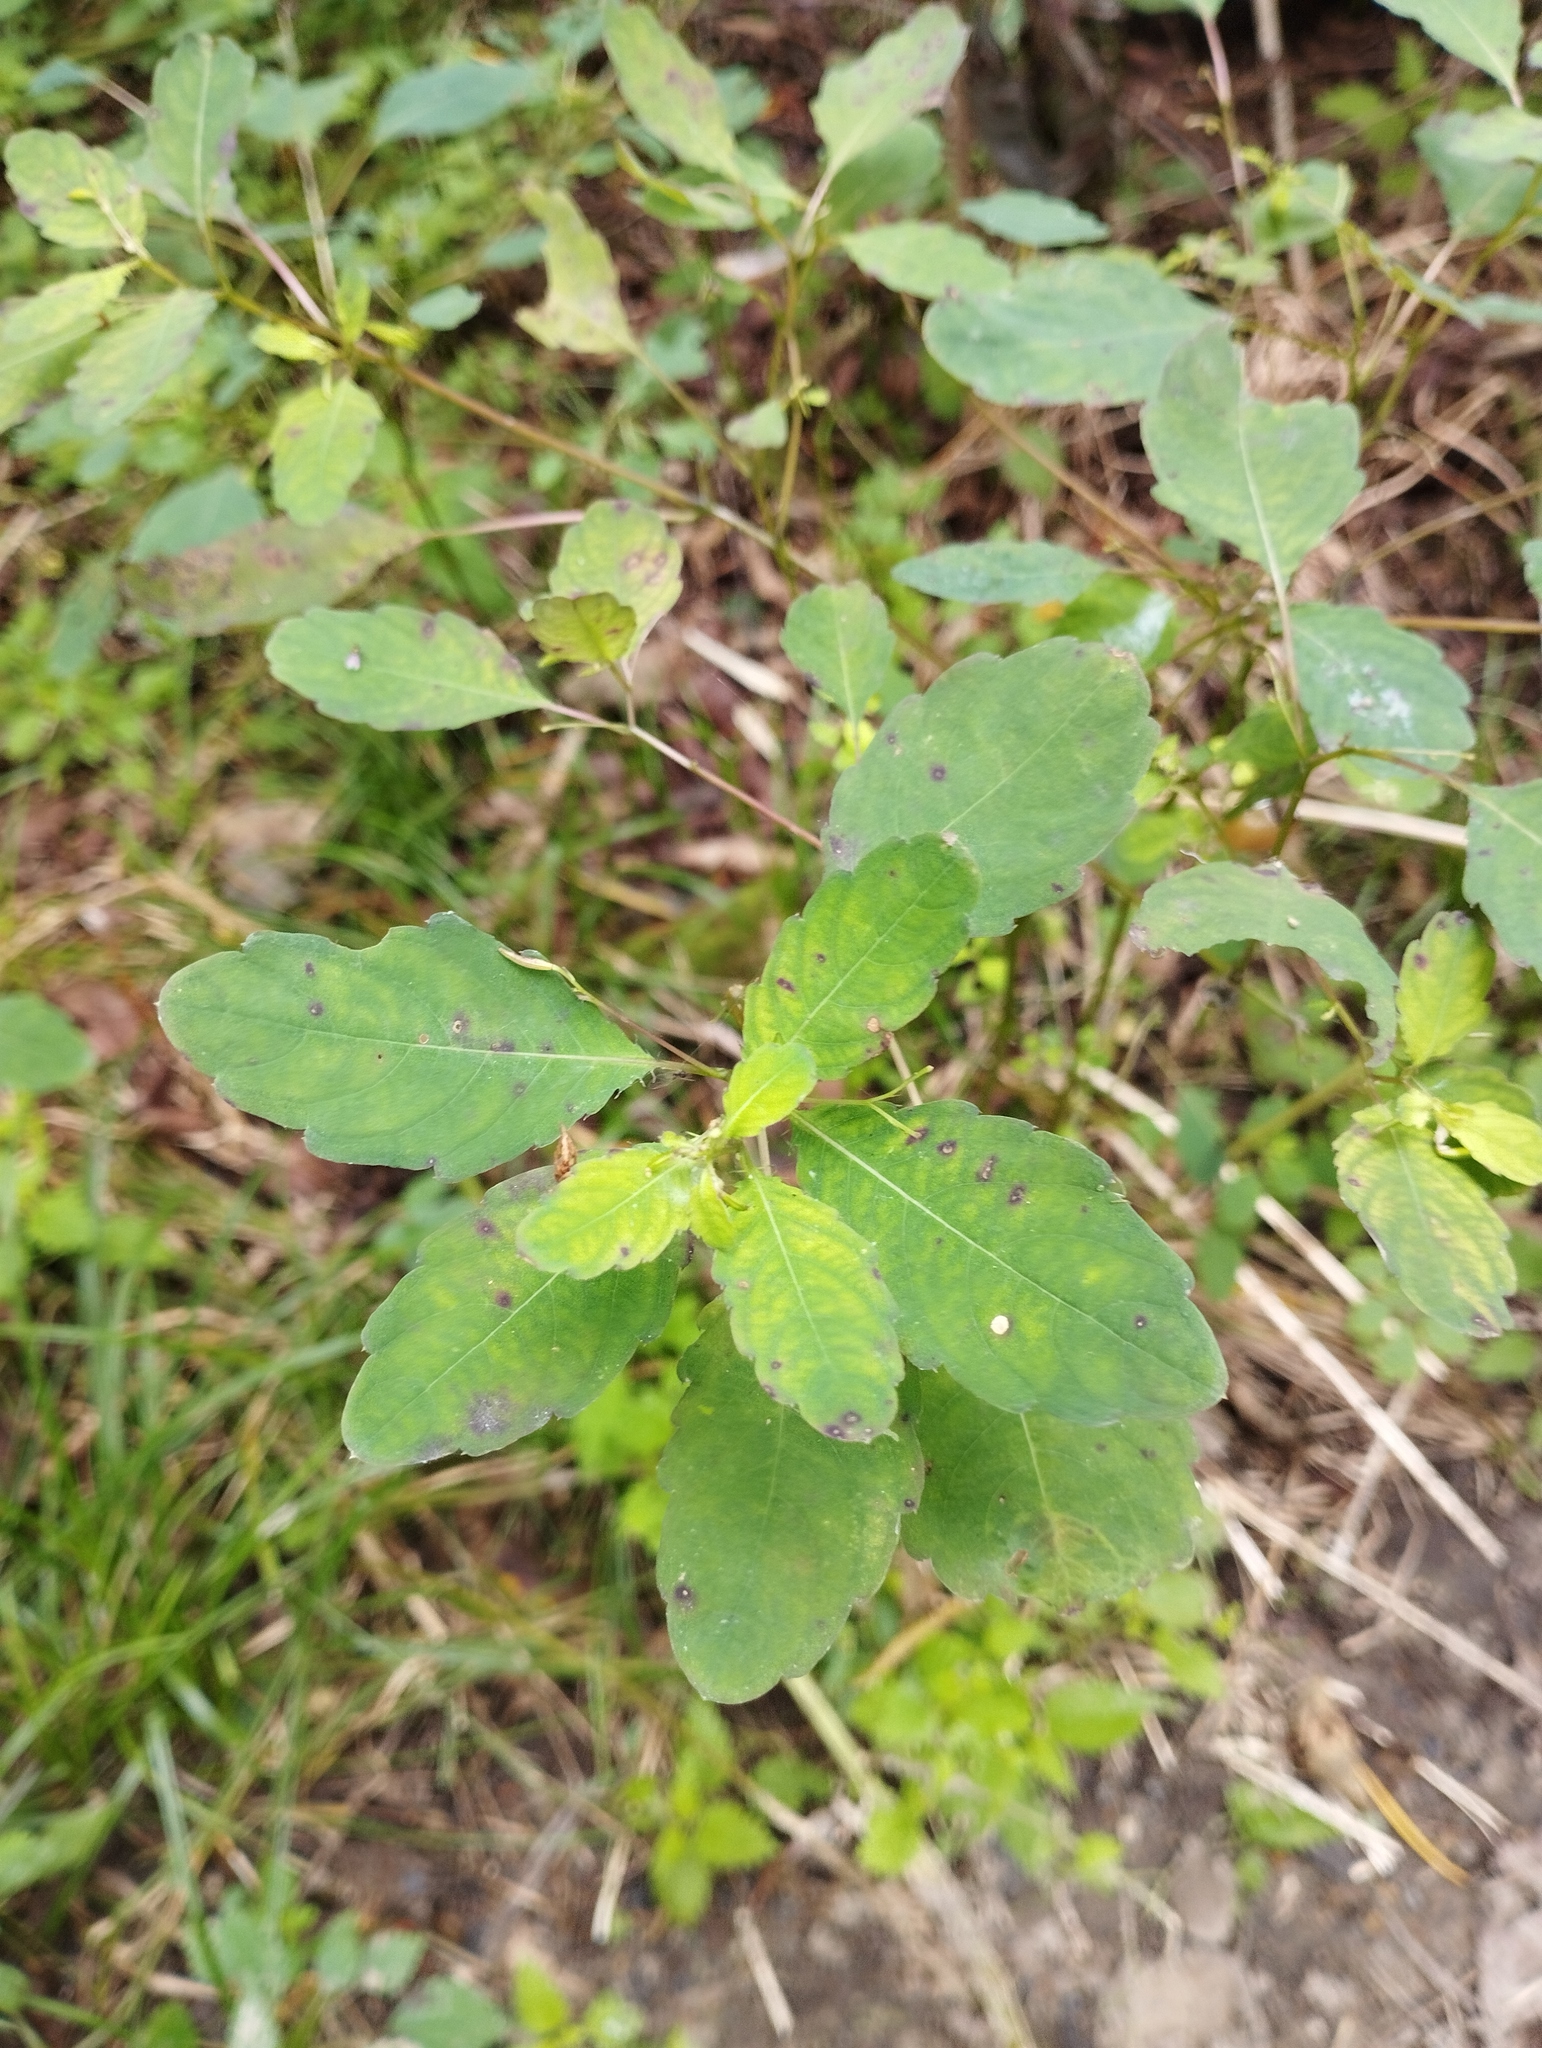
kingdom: Plantae
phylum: Tracheophyta
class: Magnoliopsida
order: Ericales
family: Balsaminaceae
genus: Impatiens
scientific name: Impatiens noli-tangere
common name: Touch-me-not balsam
